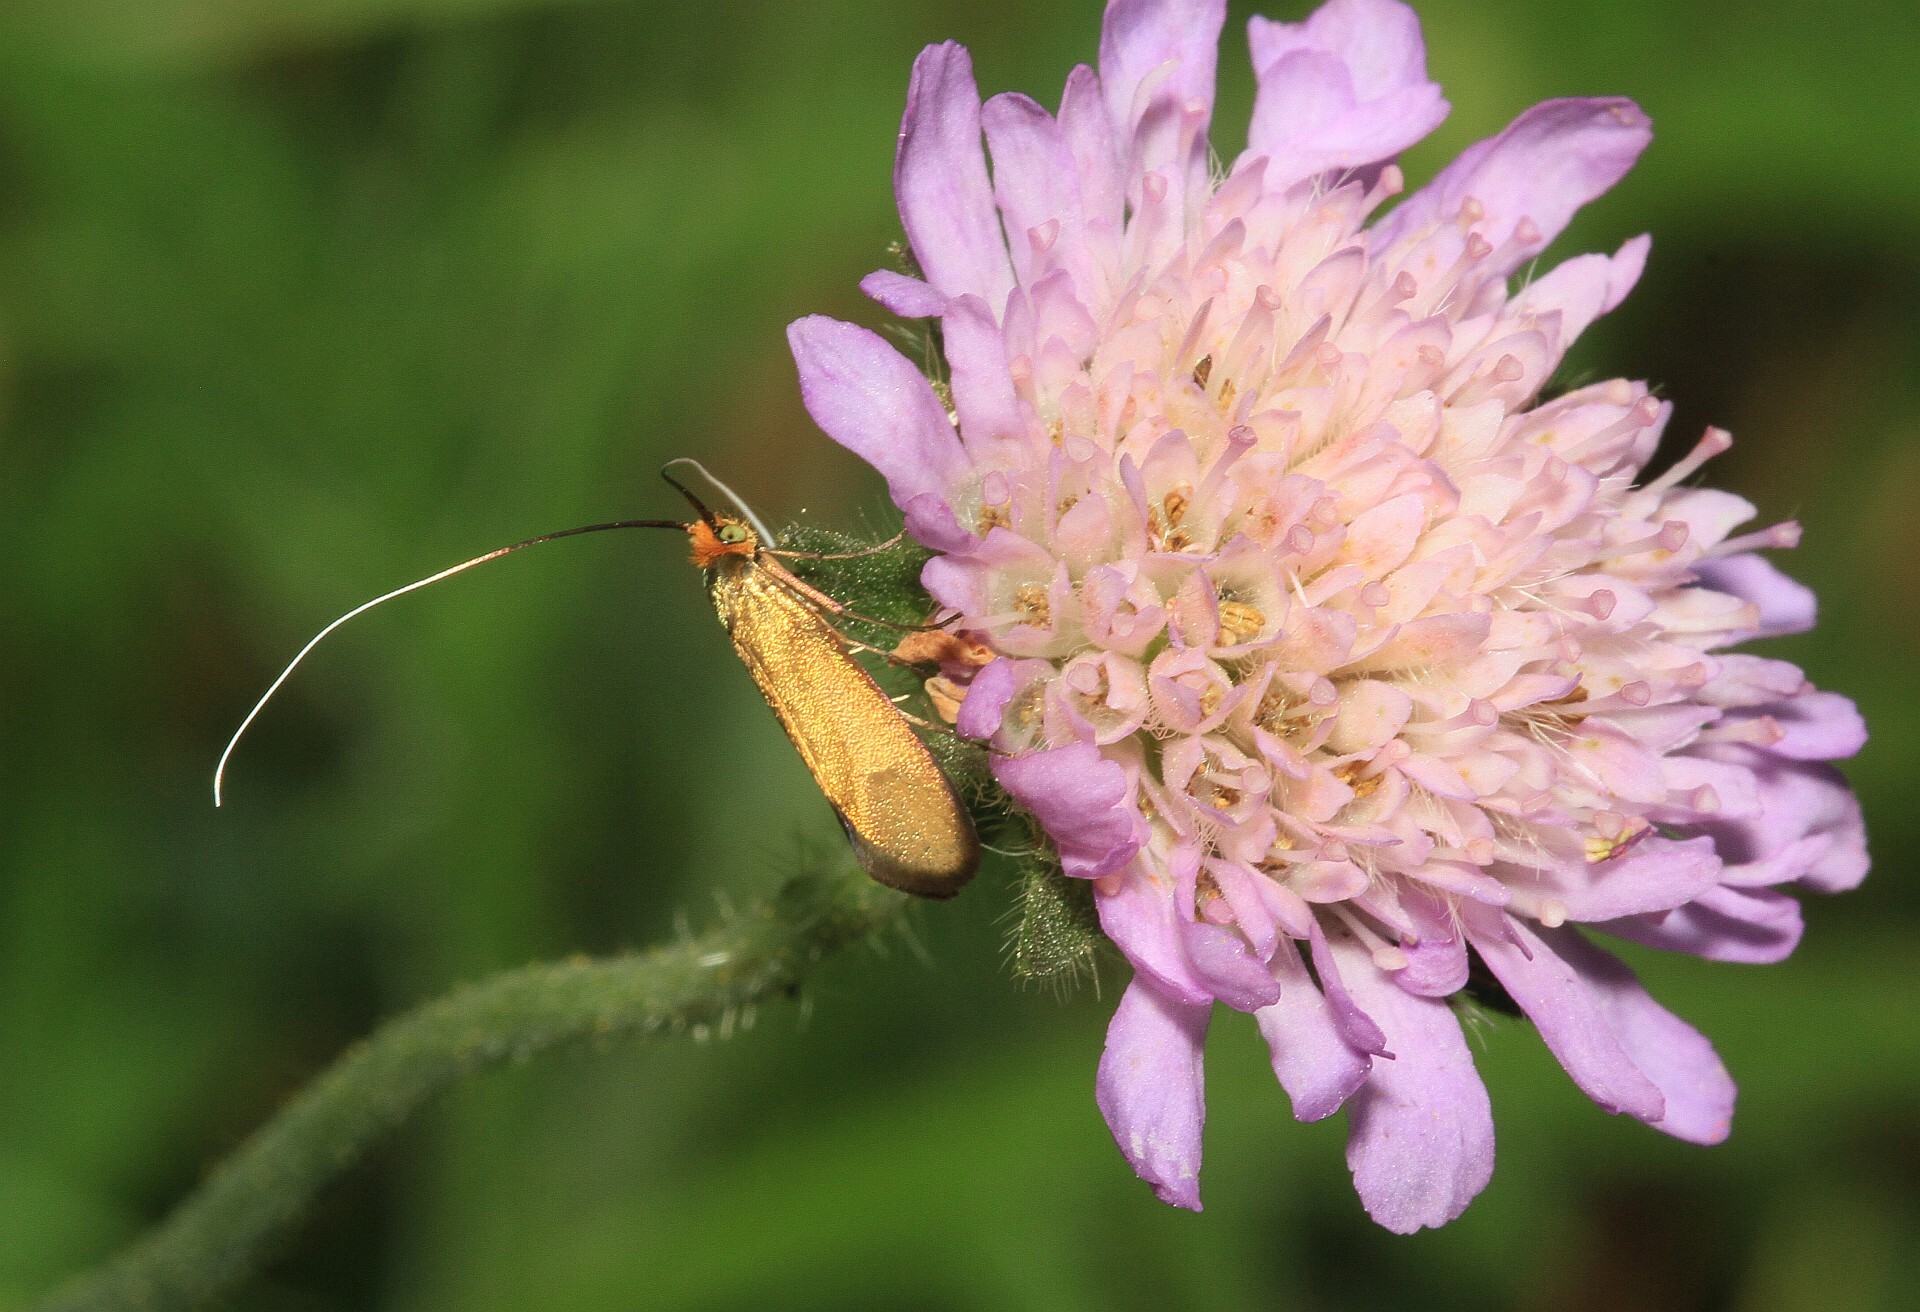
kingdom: Animalia
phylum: Arthropoda
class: Insecta
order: Lepidoptera
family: Adelidae
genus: Nemophora
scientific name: Nemophora metallica
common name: Brassy long-horn
